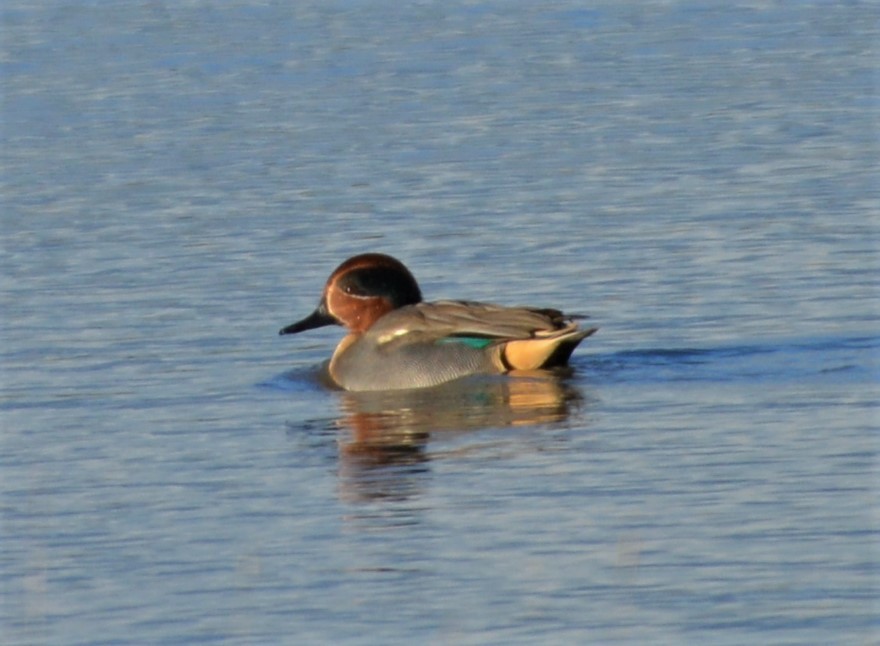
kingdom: Animalia
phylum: Chordata
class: Aves
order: Anseriformes
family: Anatidae
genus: Anas
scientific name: Anas crecca
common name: Eurasian teal
